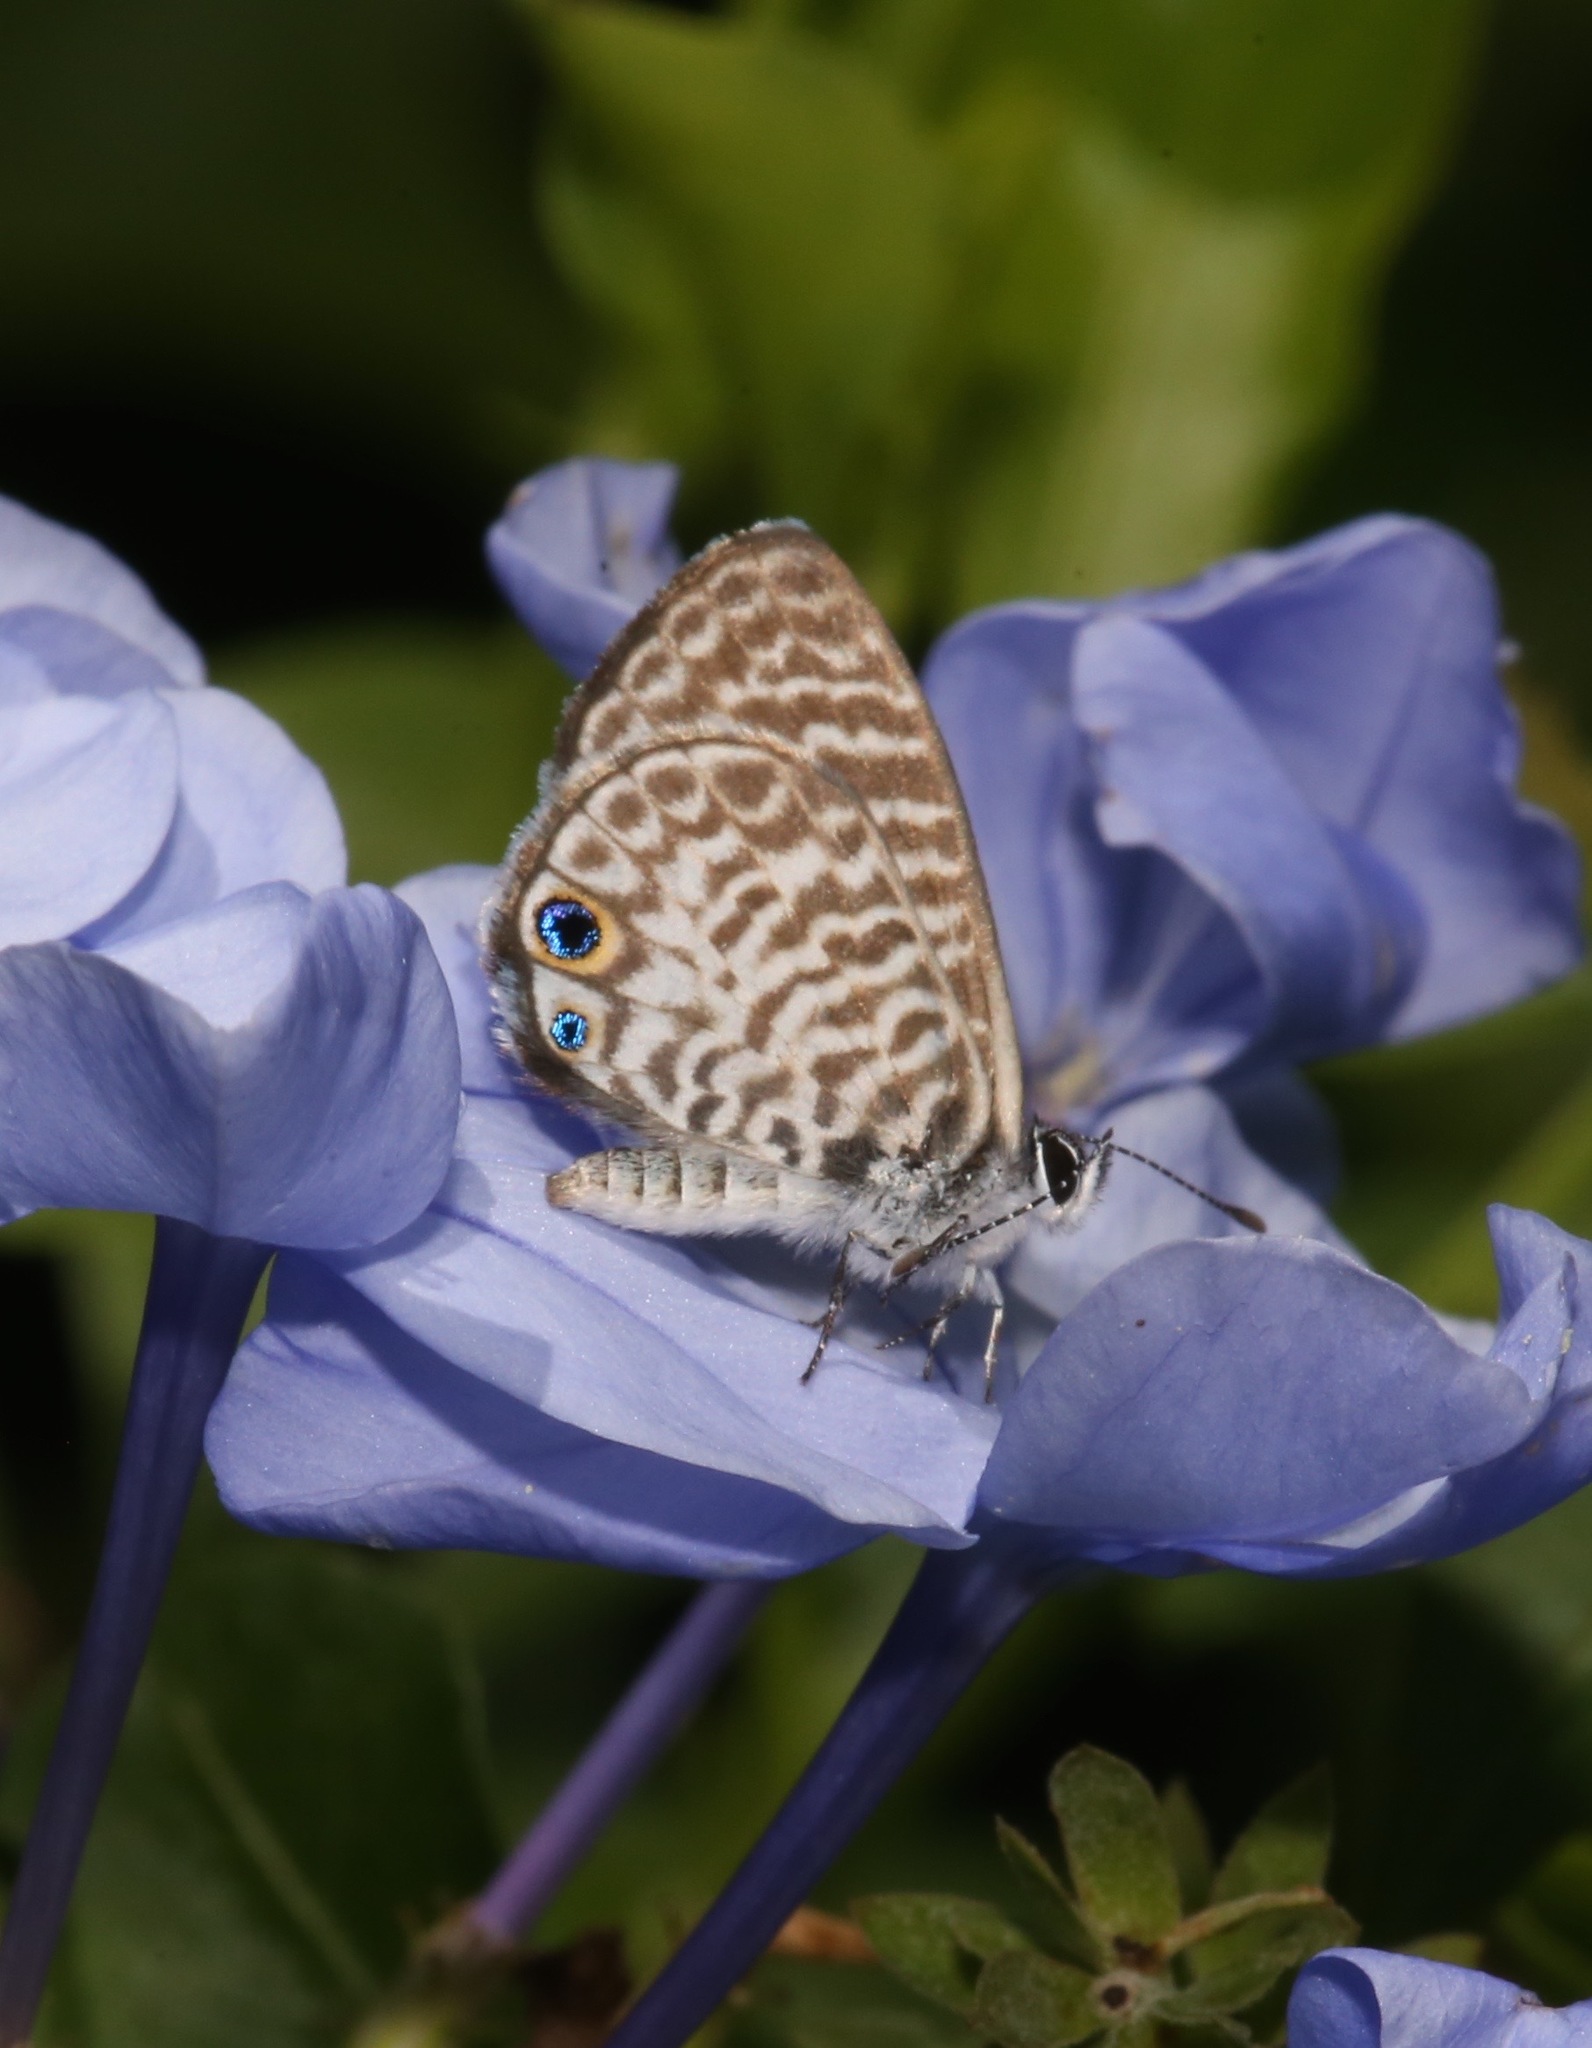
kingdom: Animalia
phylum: Arthropoda
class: Insecta
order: Lepidoptera
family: Lycaenidae
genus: Leptotes
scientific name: Leptotes cassius
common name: Cassius blue
